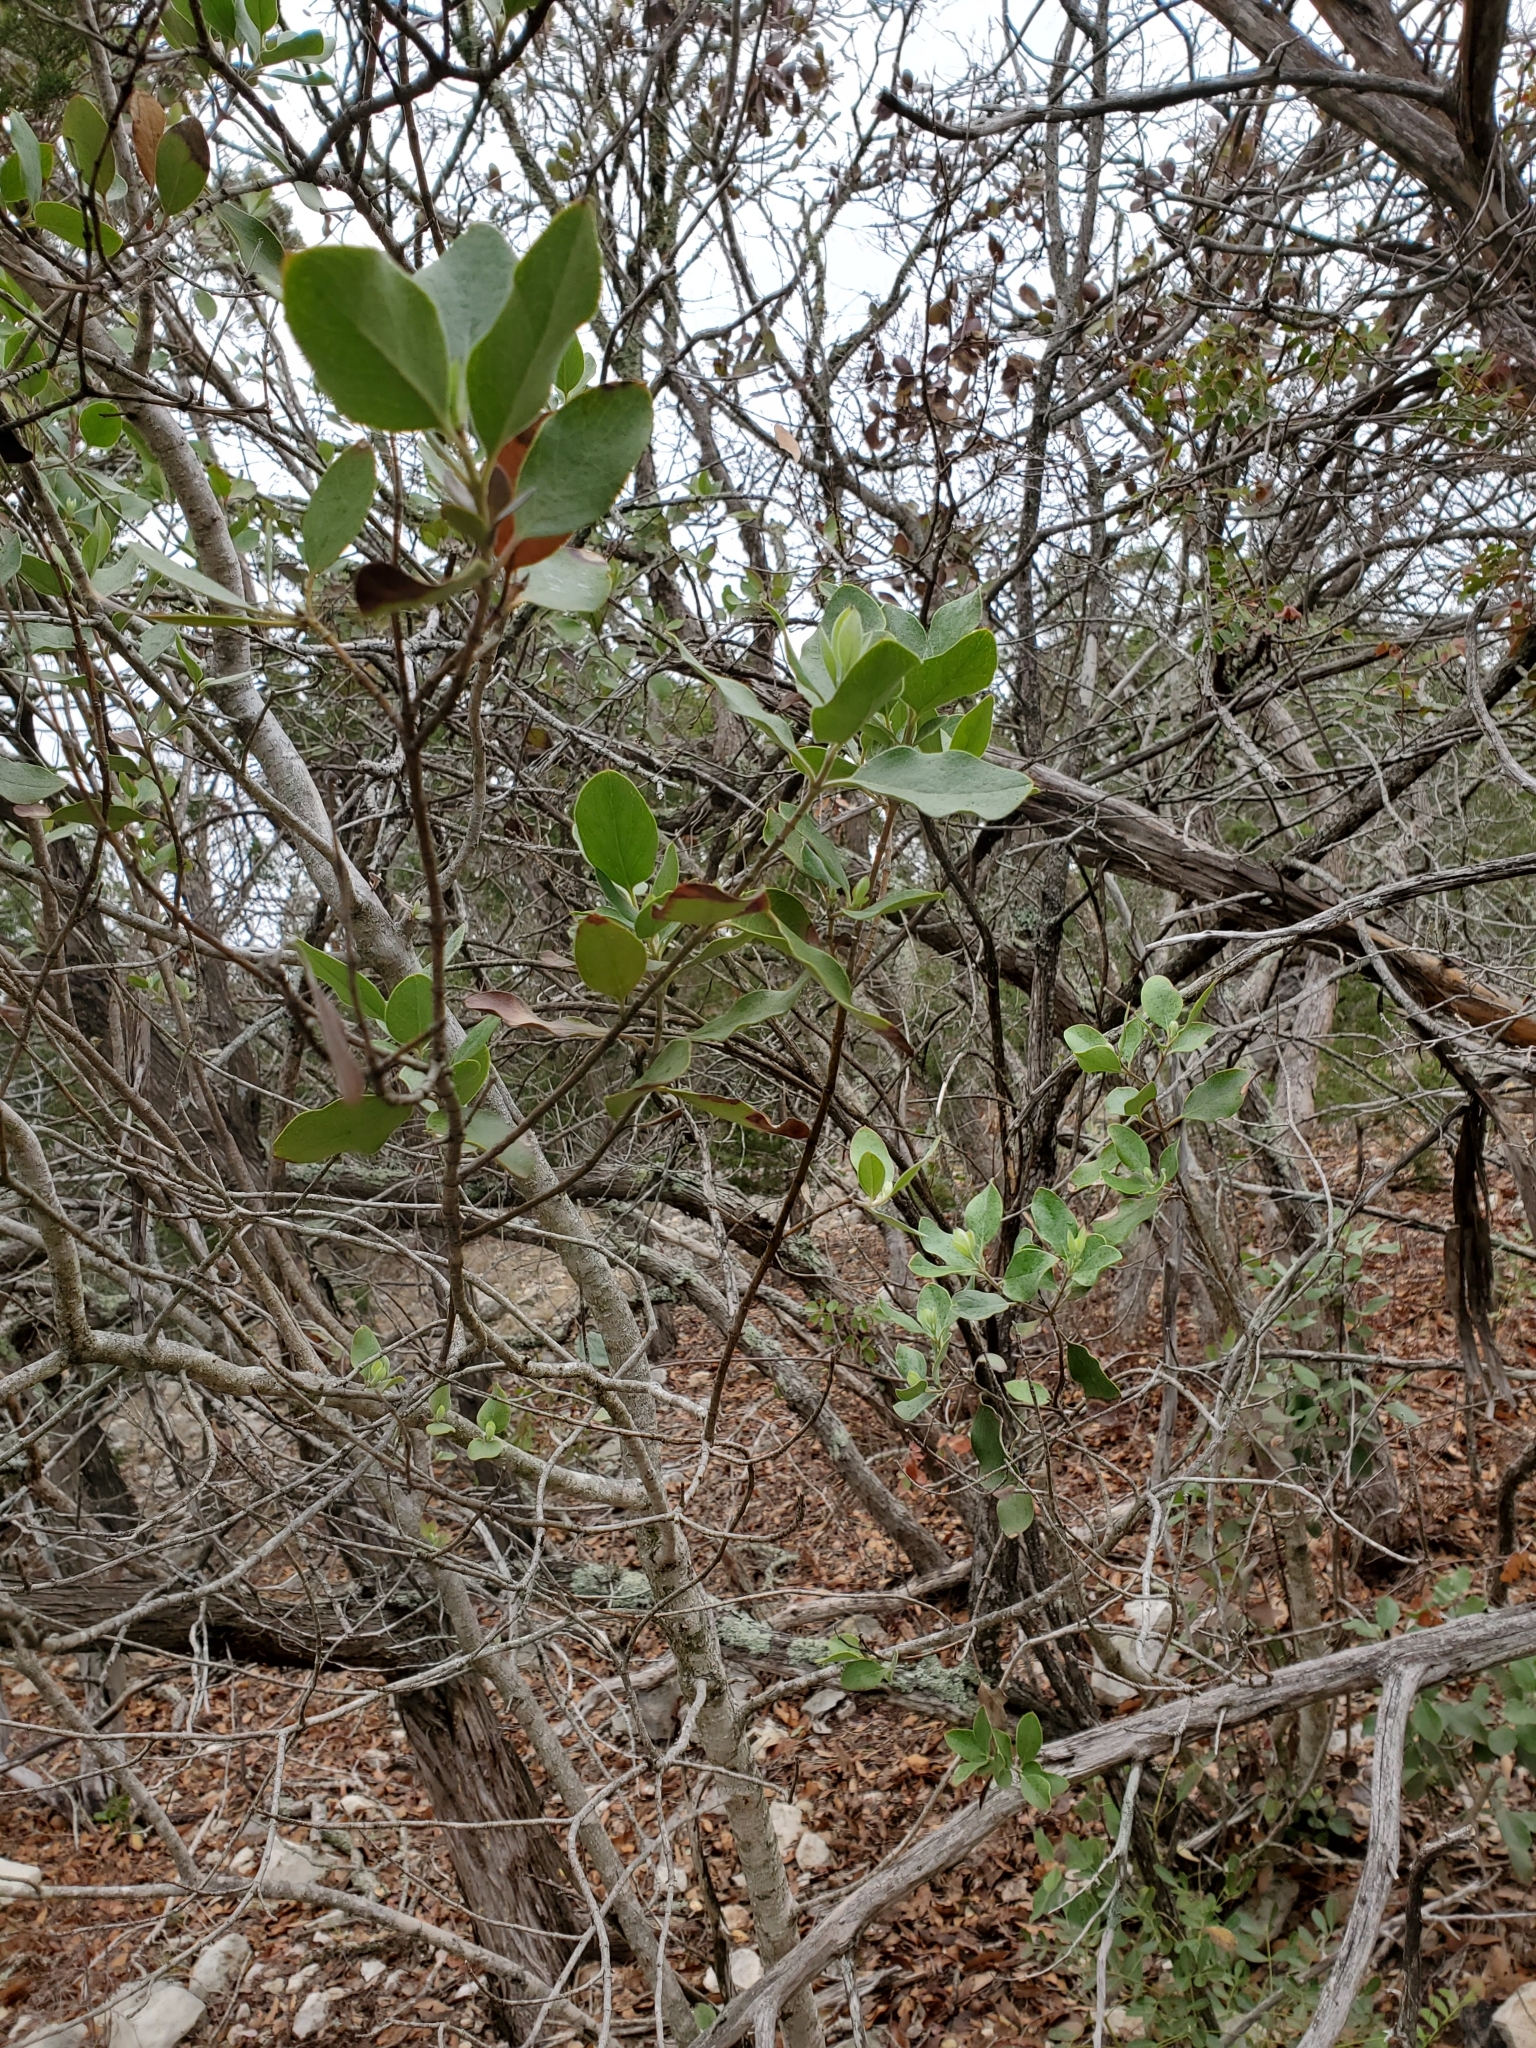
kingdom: Plantae
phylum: Tracheophyta
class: Magnoliopsida
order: Garryales
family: Garryaceae
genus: Garrya
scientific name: Garrya lindheimeri
